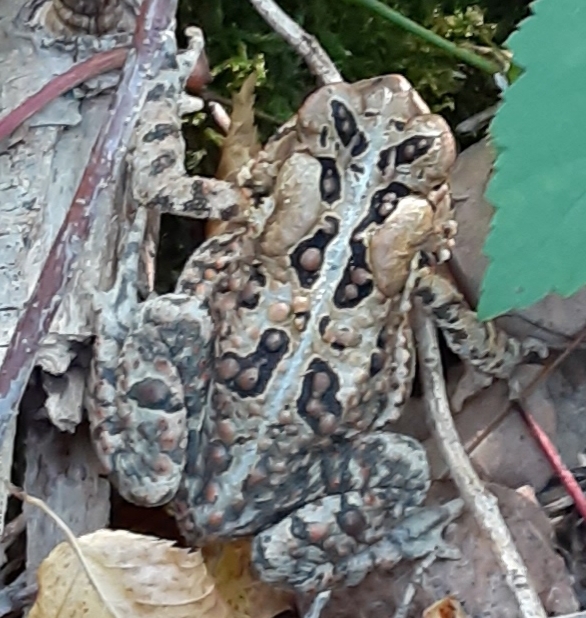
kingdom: Animalia
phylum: Chordata
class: Amphibia
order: Anura
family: Bufonidae
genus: Anaxyrus
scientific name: Anaxyrus americanus
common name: American toad
